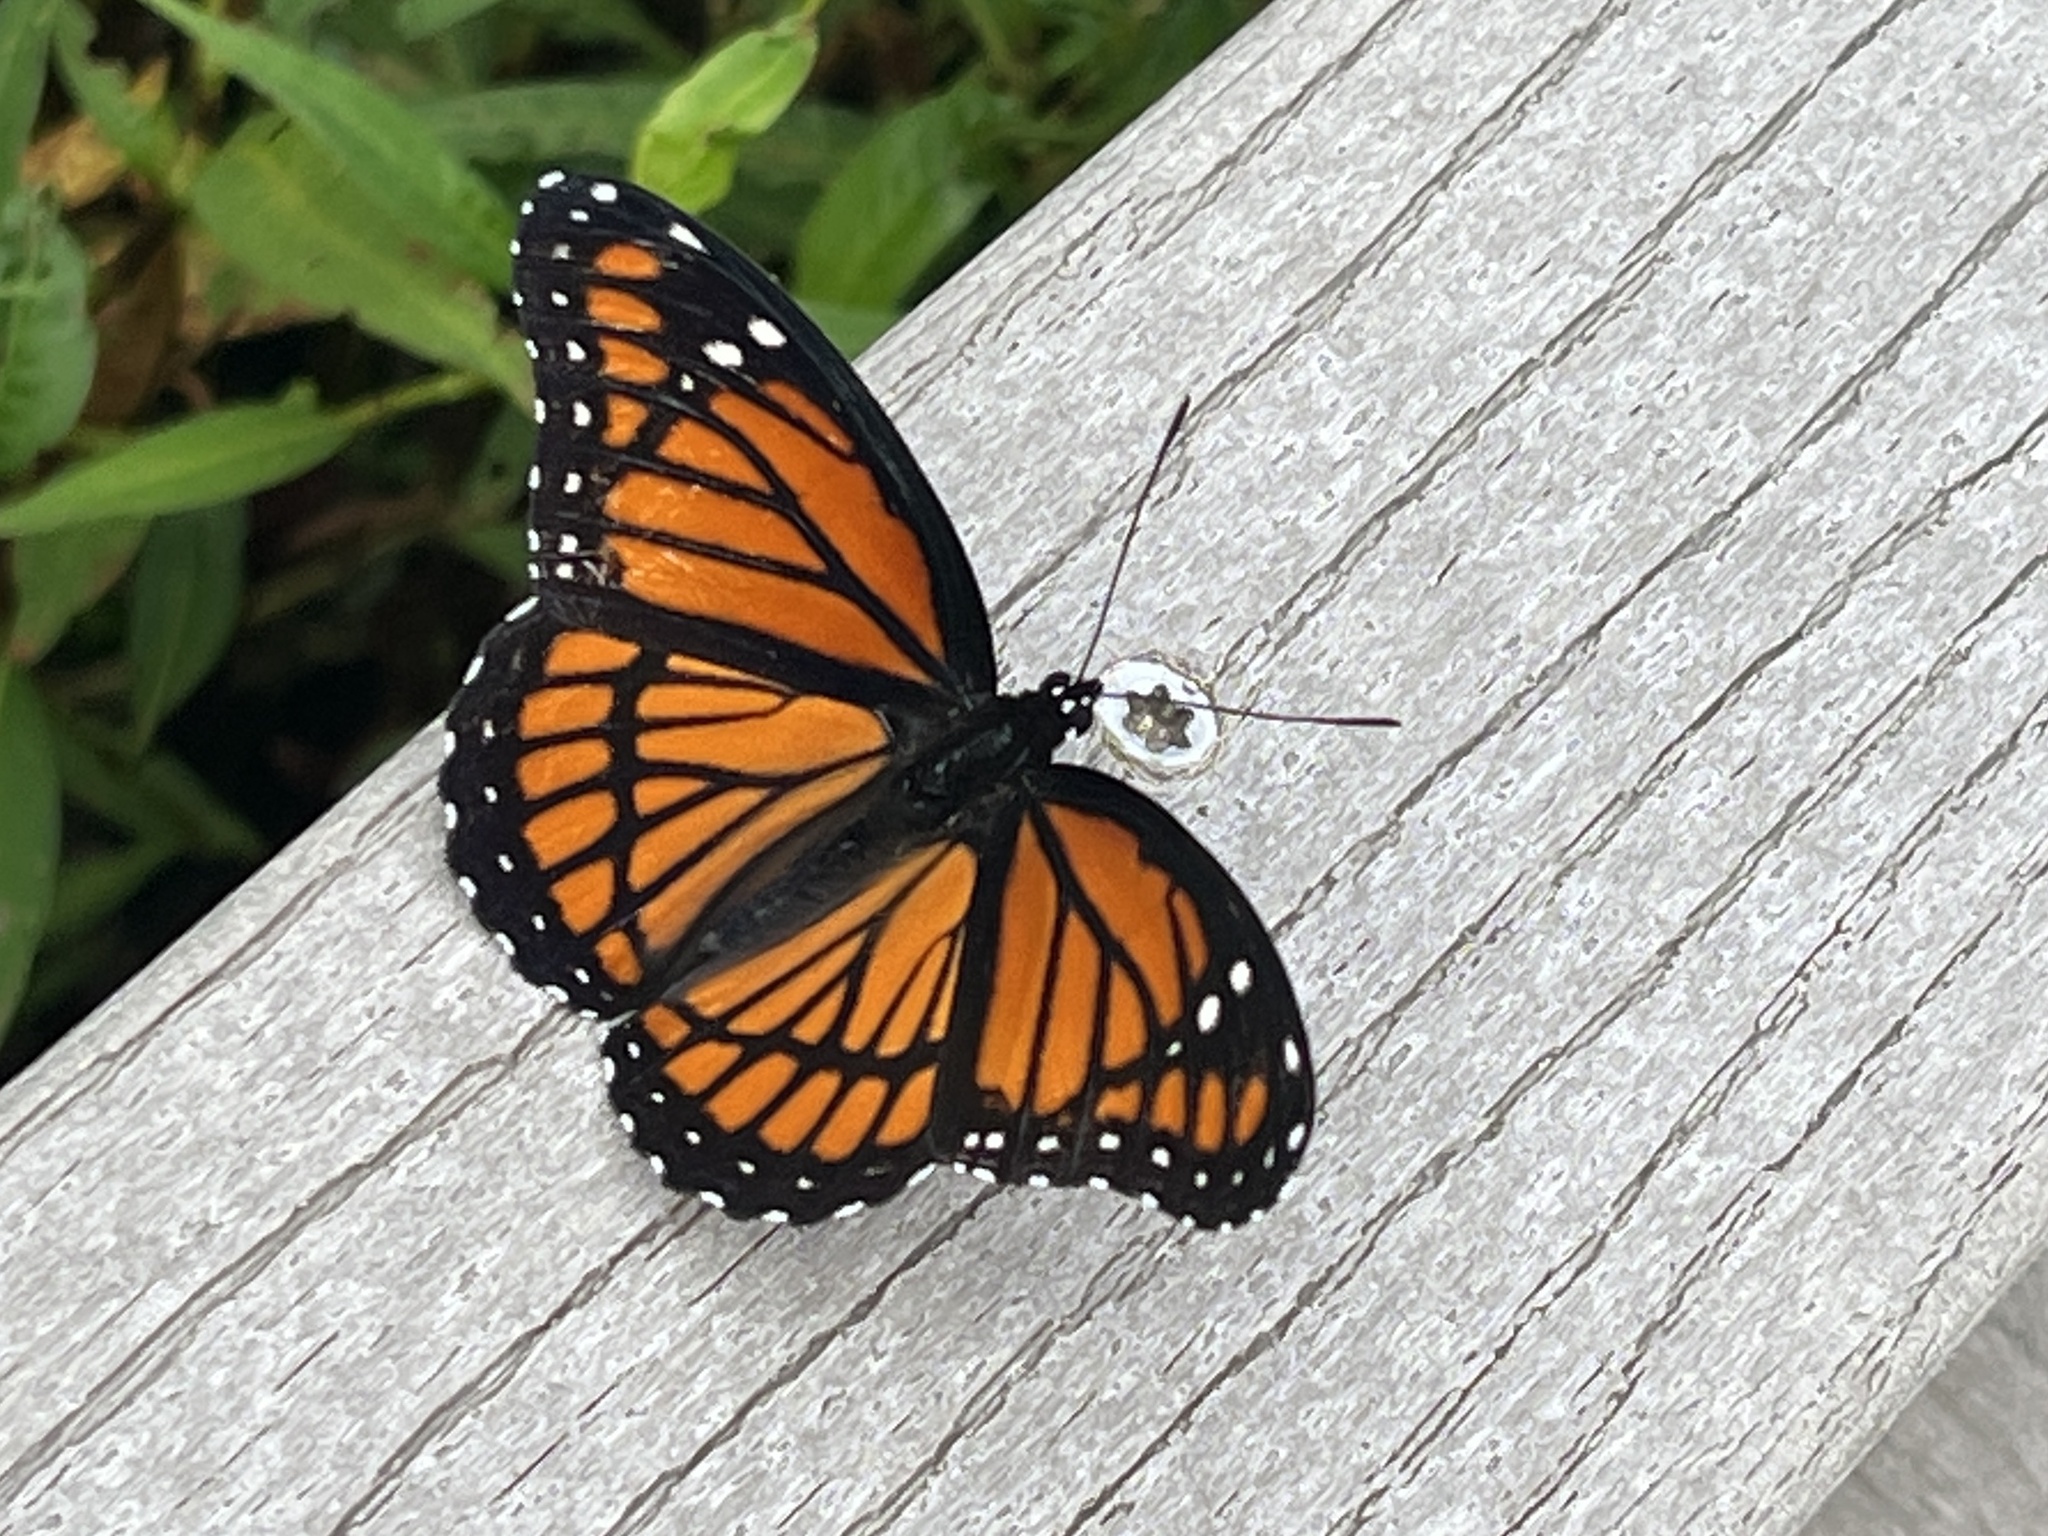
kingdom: Animalia
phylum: Arthropoda
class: Insecta
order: Lepidoptera
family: Nymphalidae
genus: Limenitis
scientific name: Limenitis archippus
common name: Viceroy
